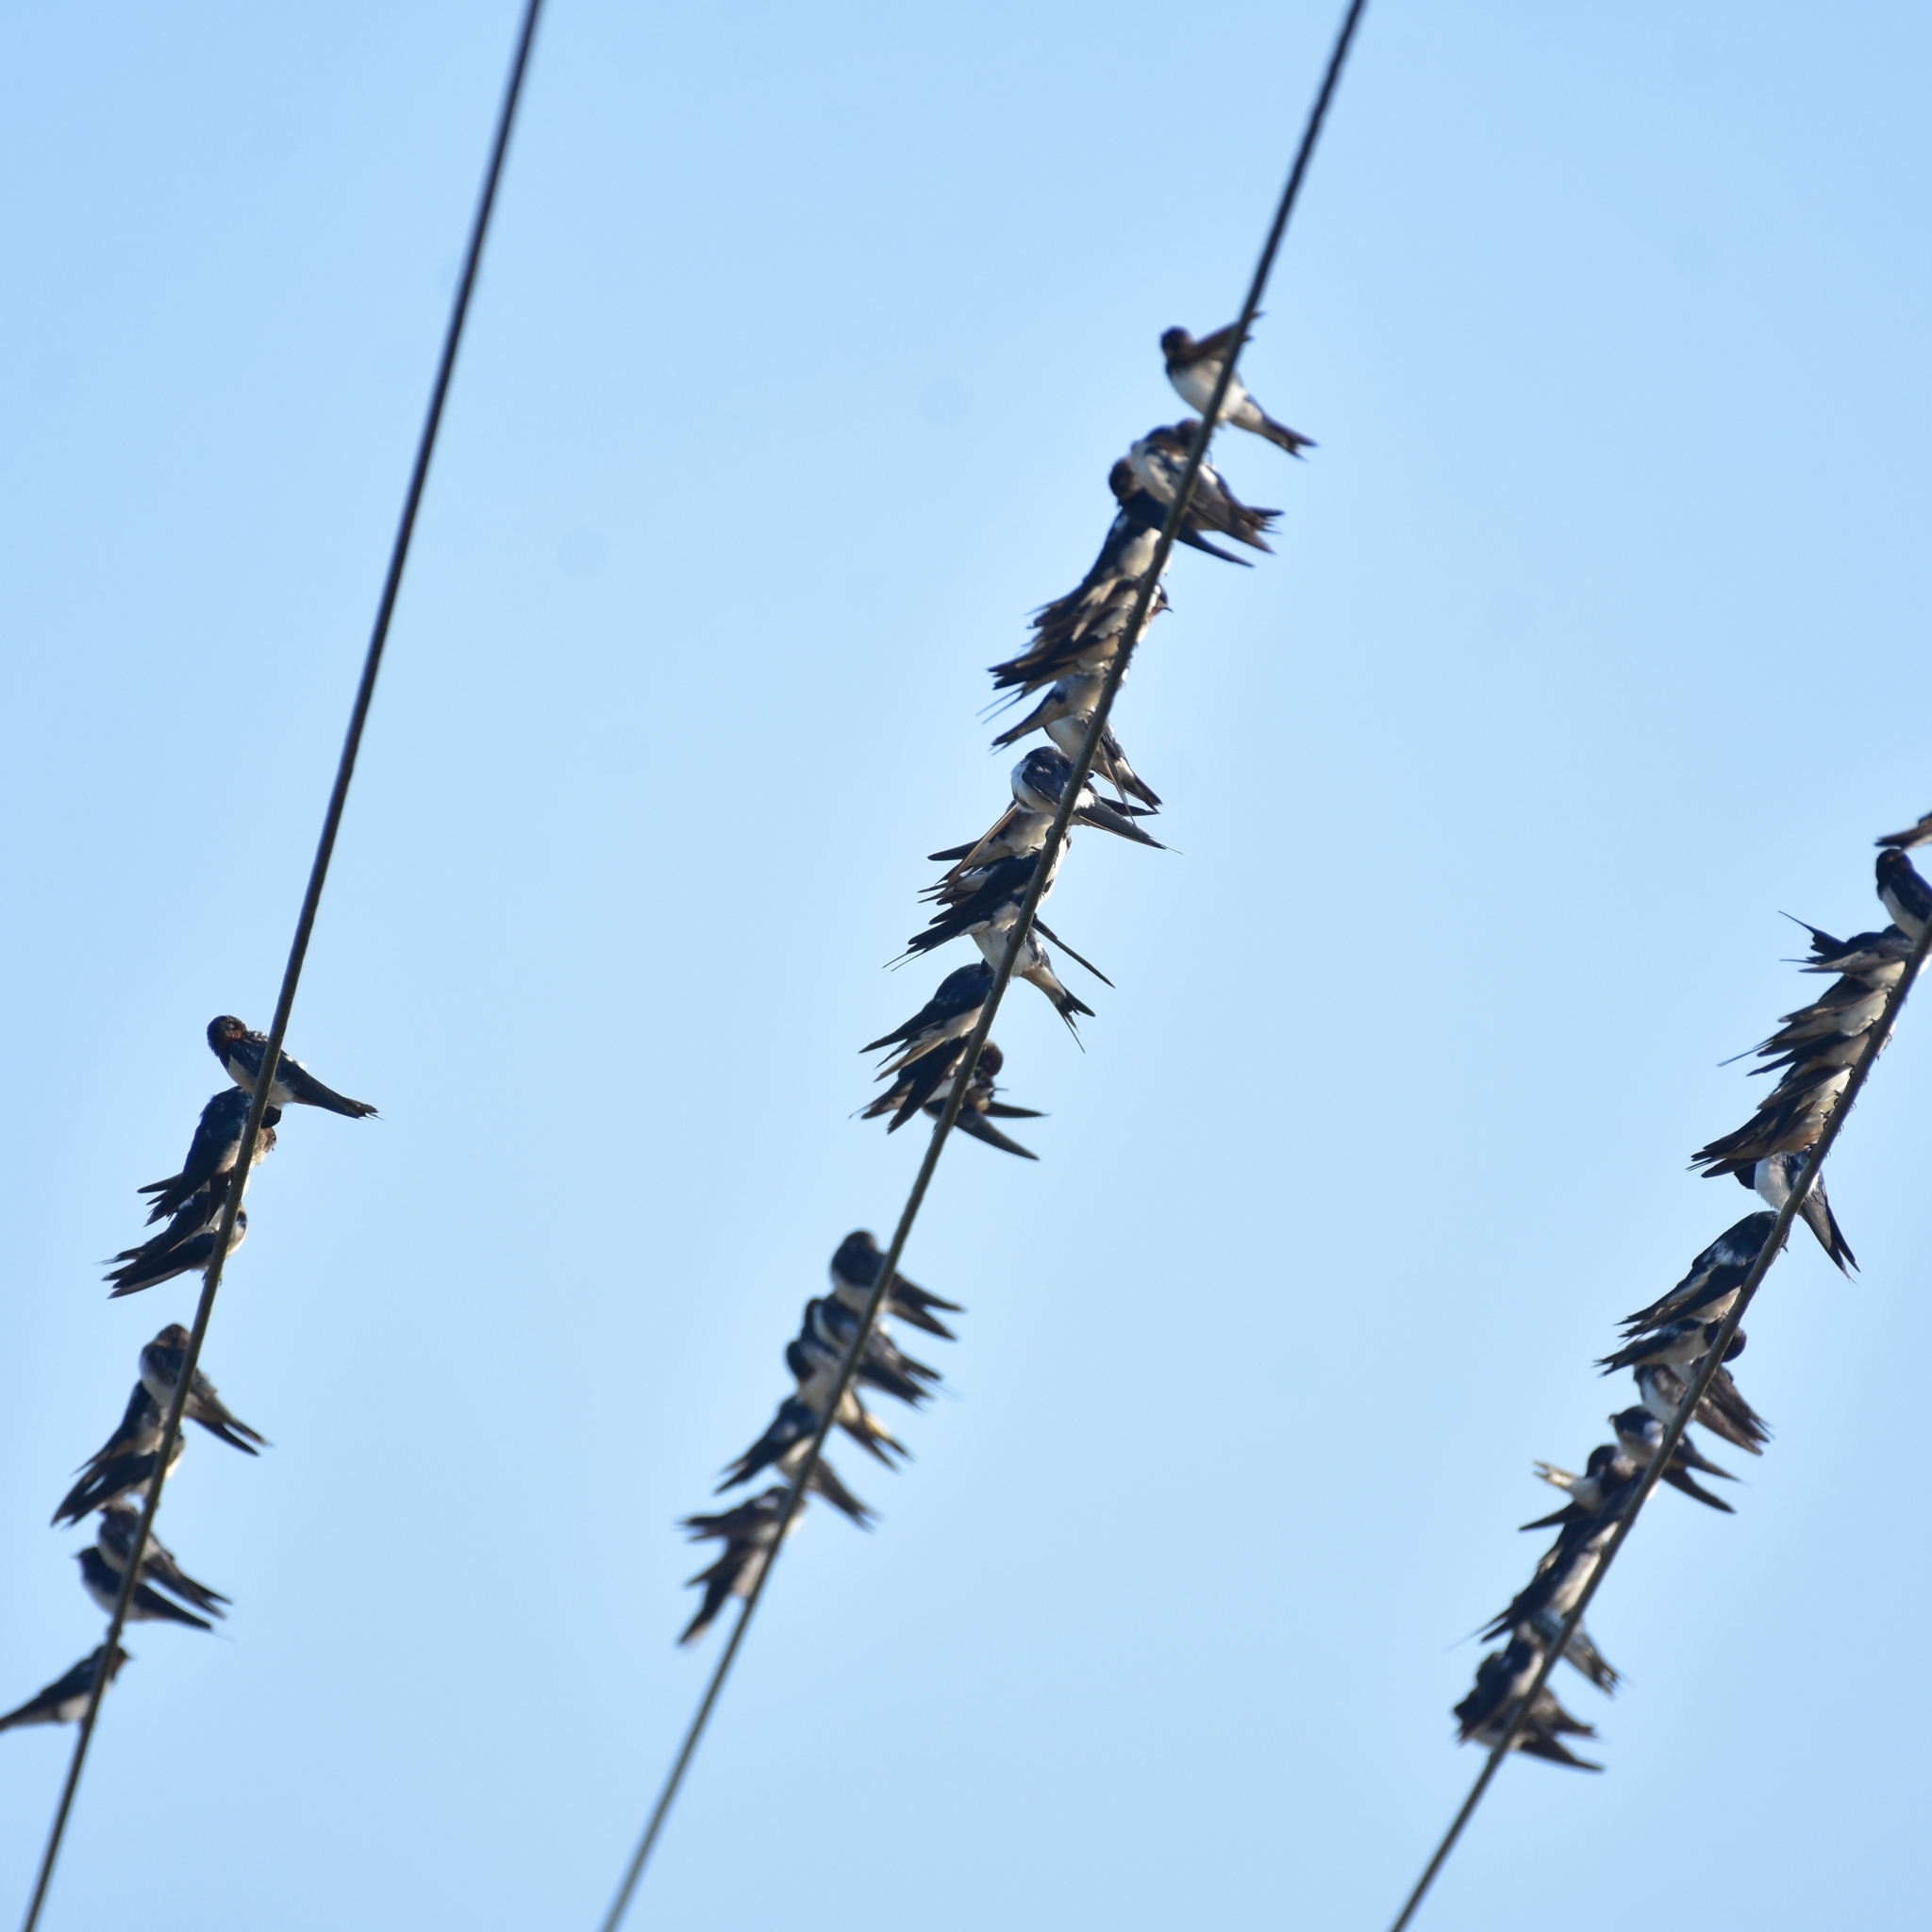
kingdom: Animalia
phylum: Chordata
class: Aves
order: Passeriformes
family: Hirundinidae
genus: Hirundo
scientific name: Hirundo rustica
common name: Barn swallow
